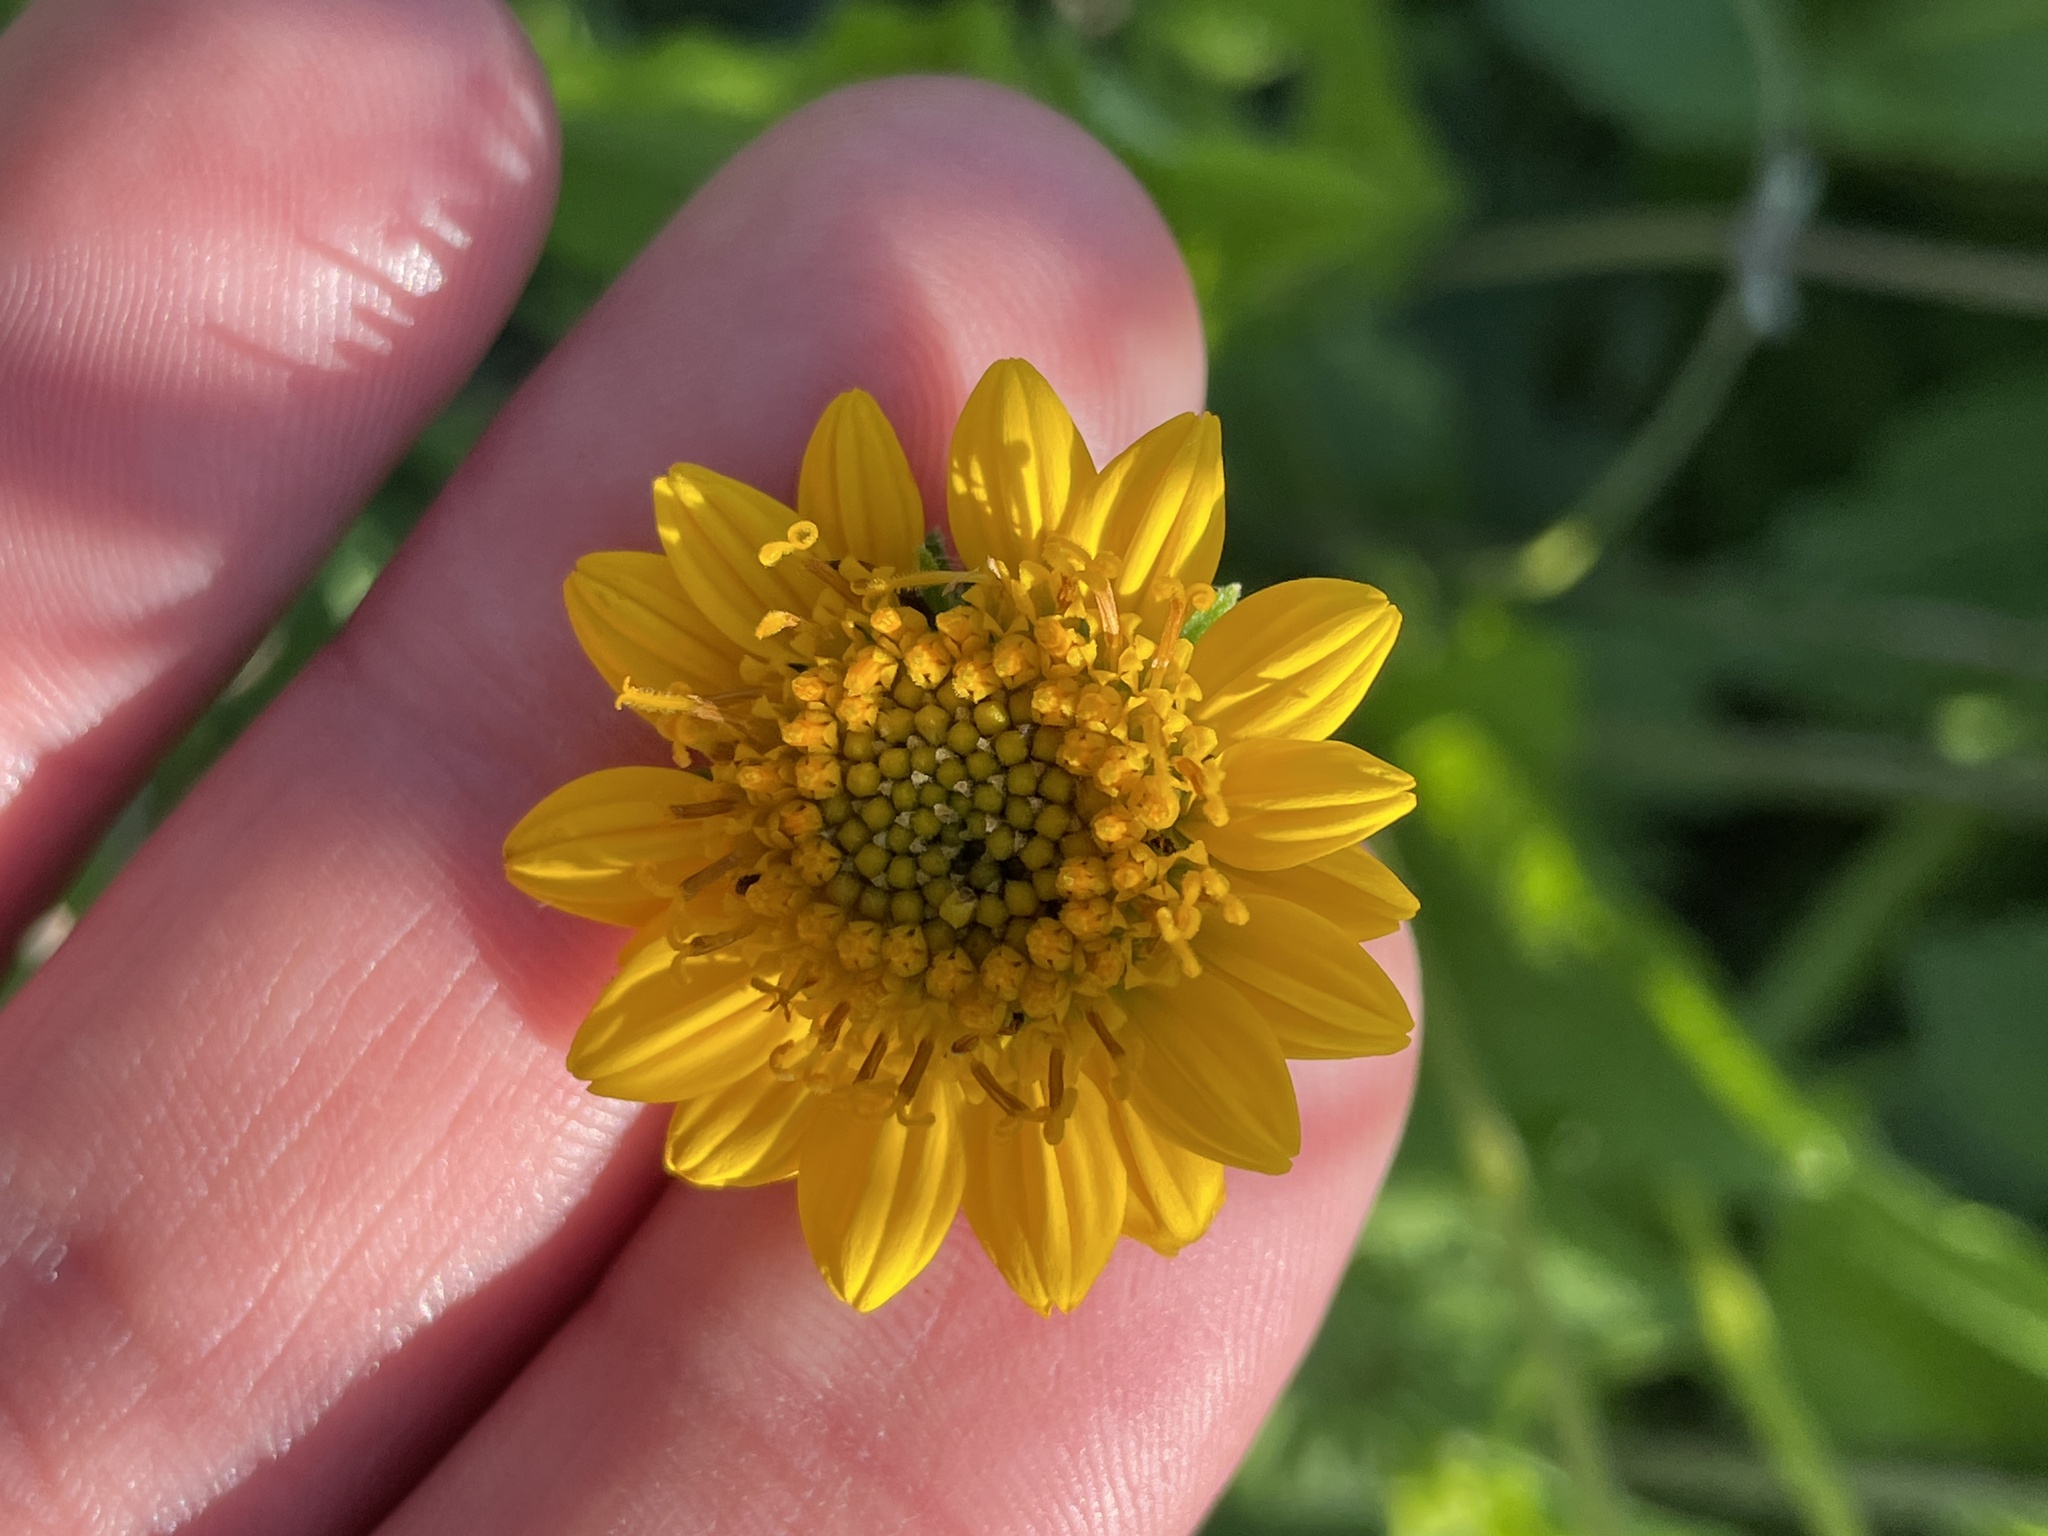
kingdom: Plantae
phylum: Tracheophyta
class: Magnoliopsida
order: Asterales
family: Asteraceae
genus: Simsia
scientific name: Simsia calva
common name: Awnless bush-sunflower
